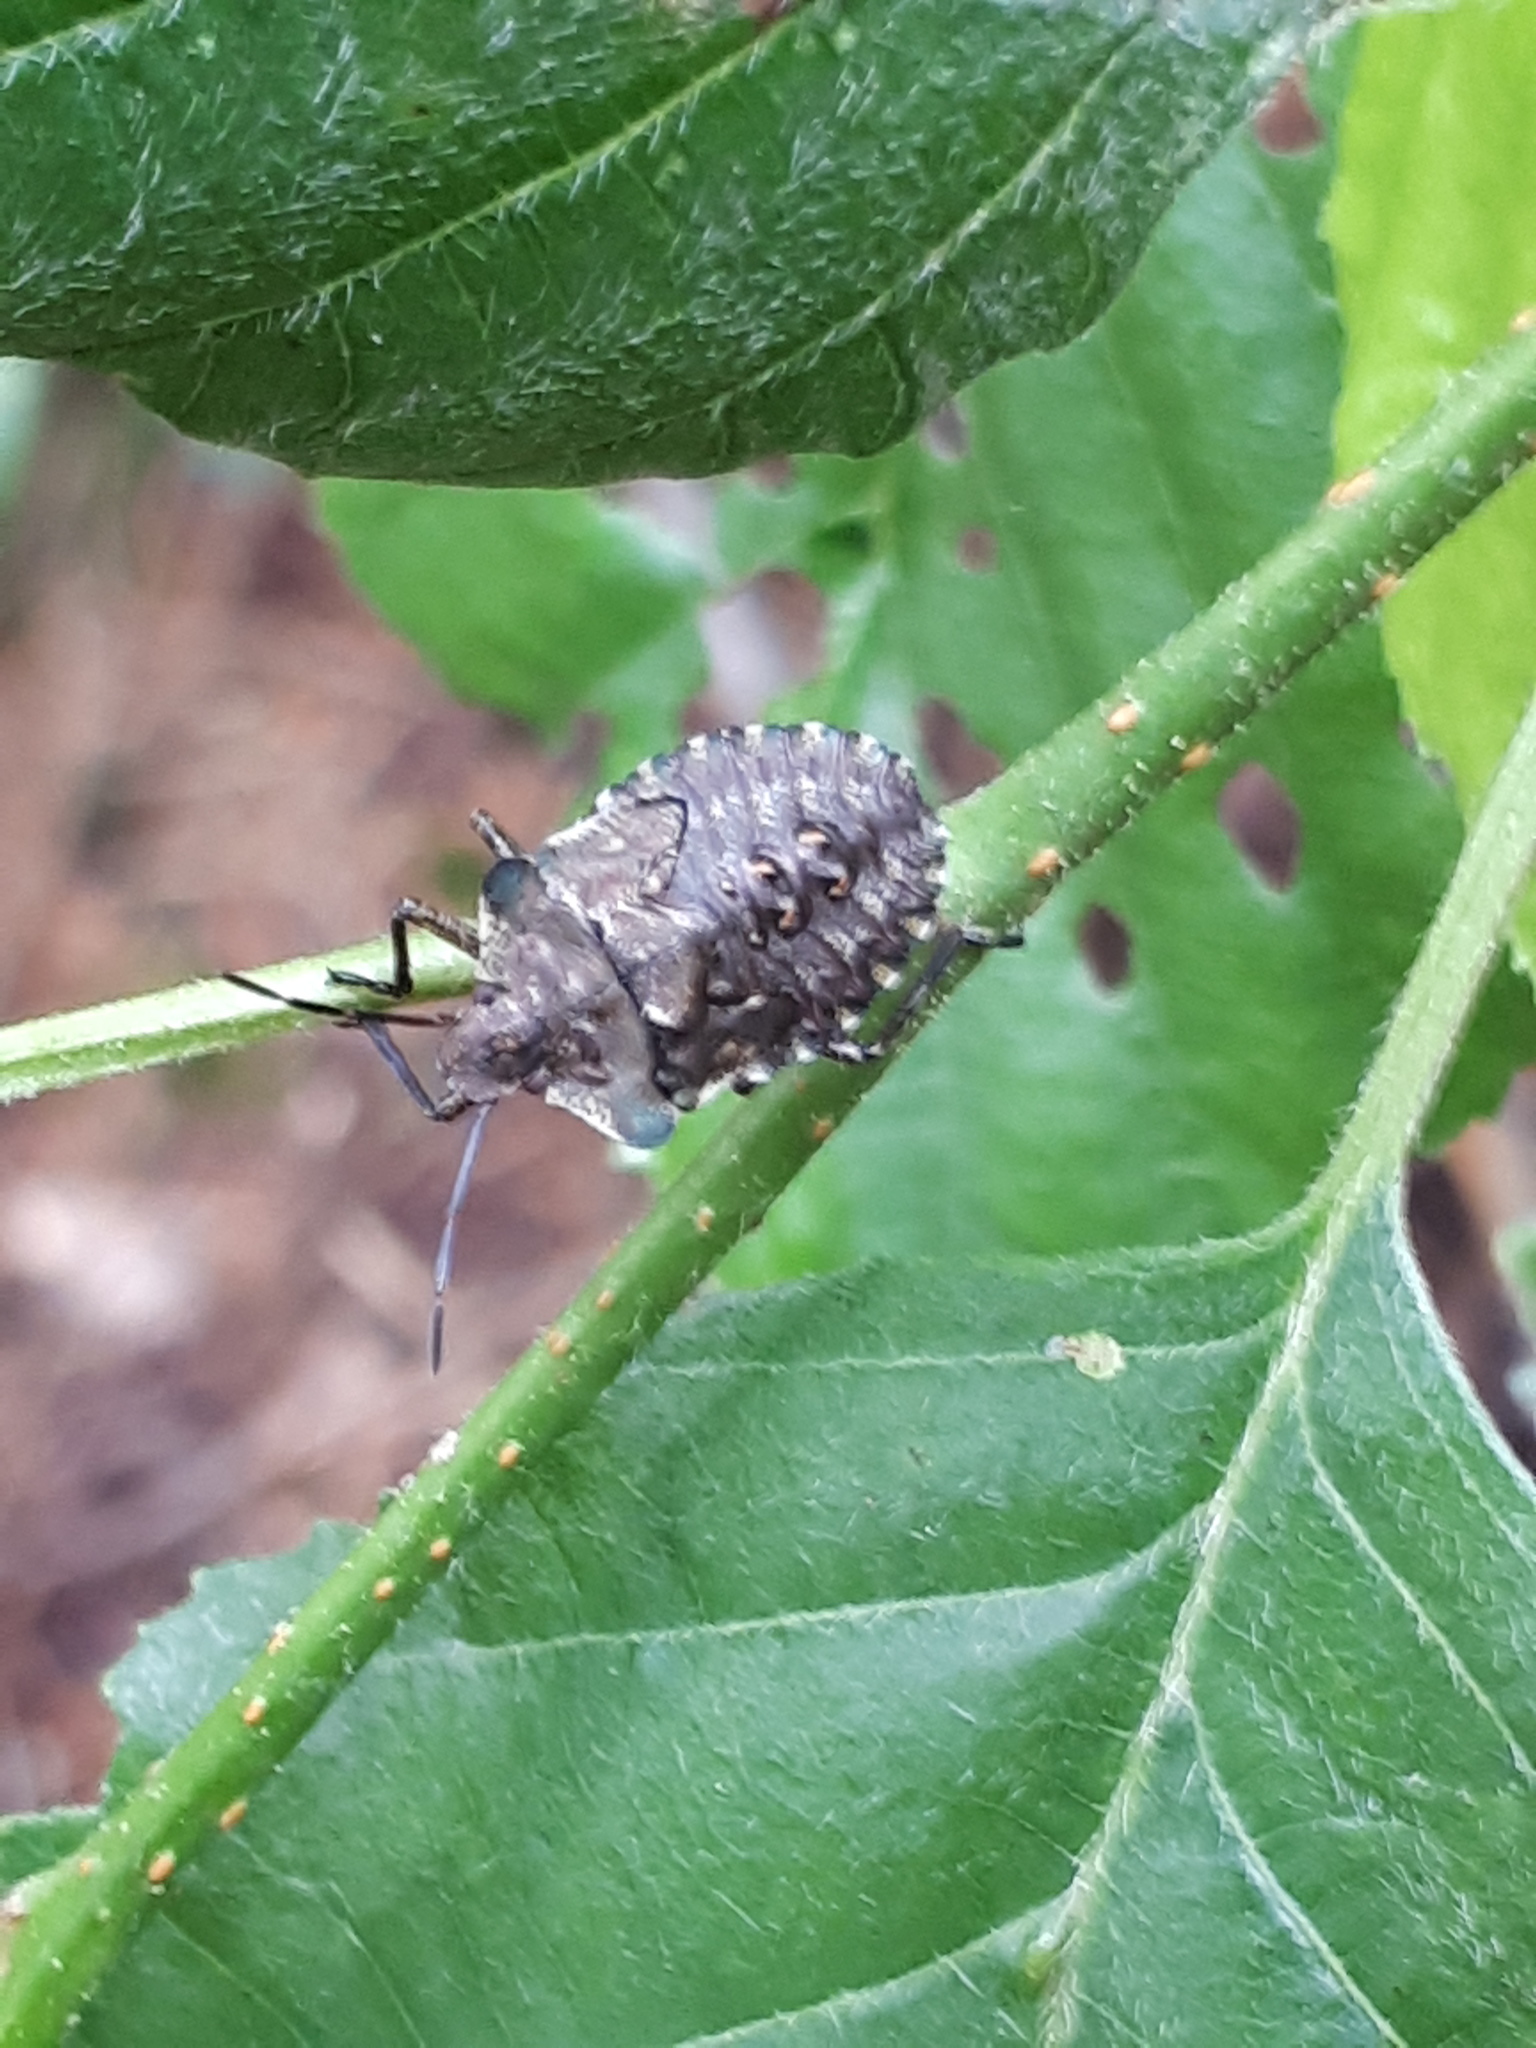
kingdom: Animalia
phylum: Arthropoda
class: Insecta
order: Hemiptera
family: Pentatomidae
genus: Pentatoma
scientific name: Pentatoma rufipes
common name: Forest bug
